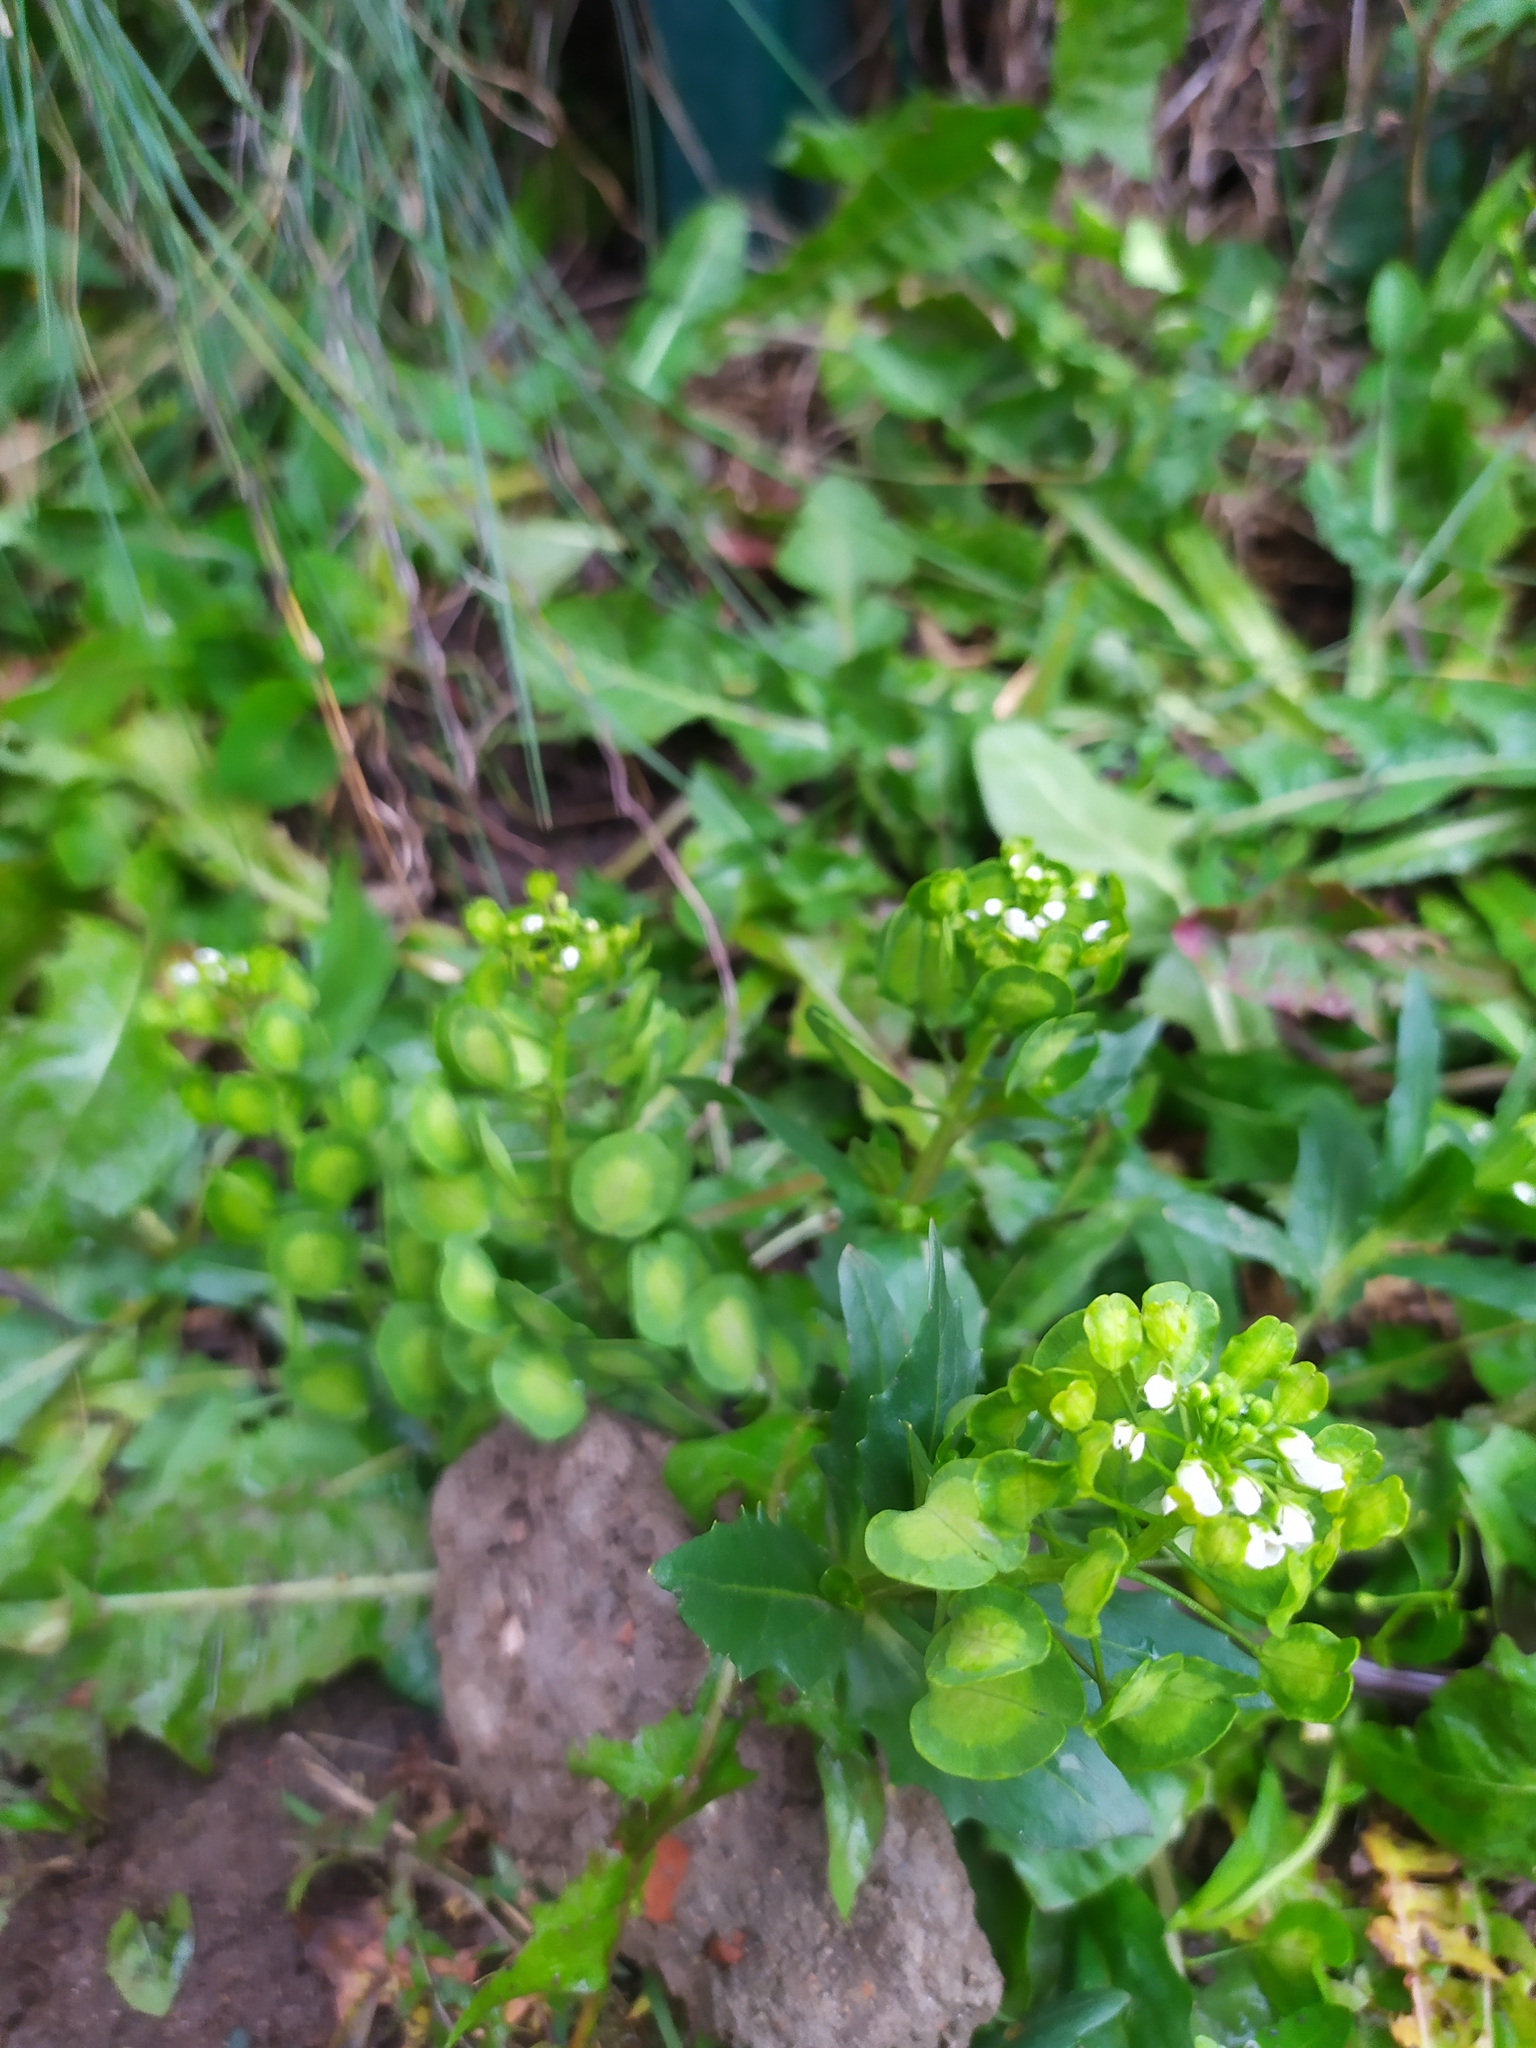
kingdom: Plantae
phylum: Tracheophyta
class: Magnoliopsida
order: Brassicales
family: Brassicaceae
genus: Thlaspi
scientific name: Thlaspi arvense
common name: Field pennycress
